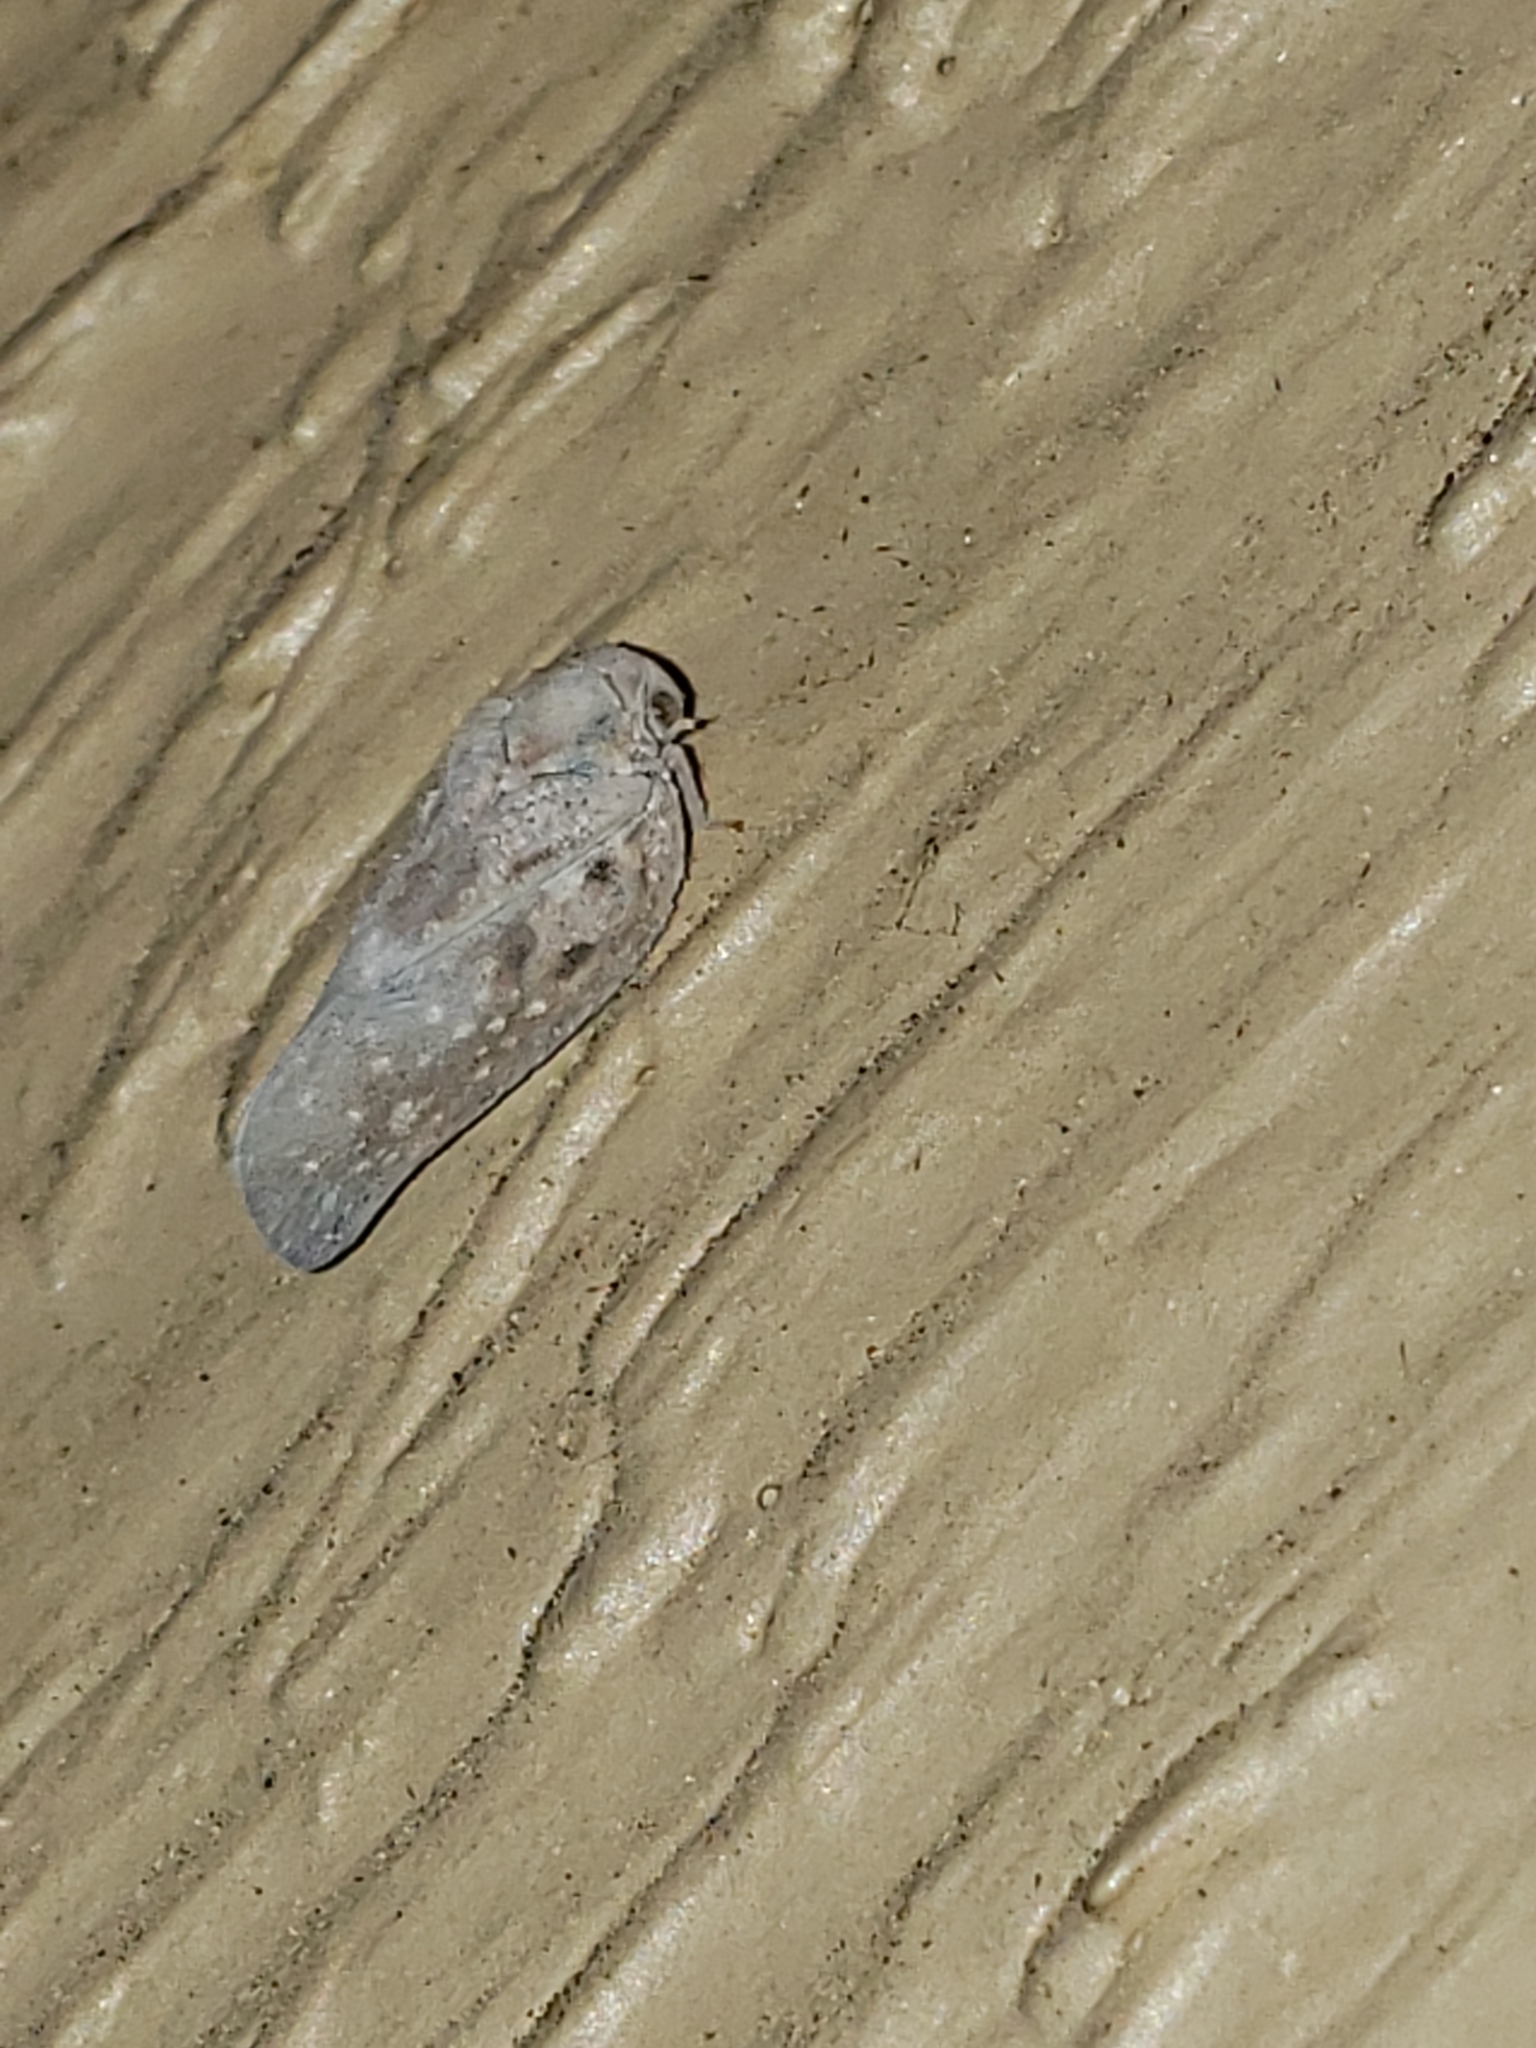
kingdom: Animalia
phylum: Arthropoda
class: Insecta
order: Hemiptera
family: Flatidae
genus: Metcalfa
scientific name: Metcalfa pruinosa
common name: Citrus flatid planthopper
